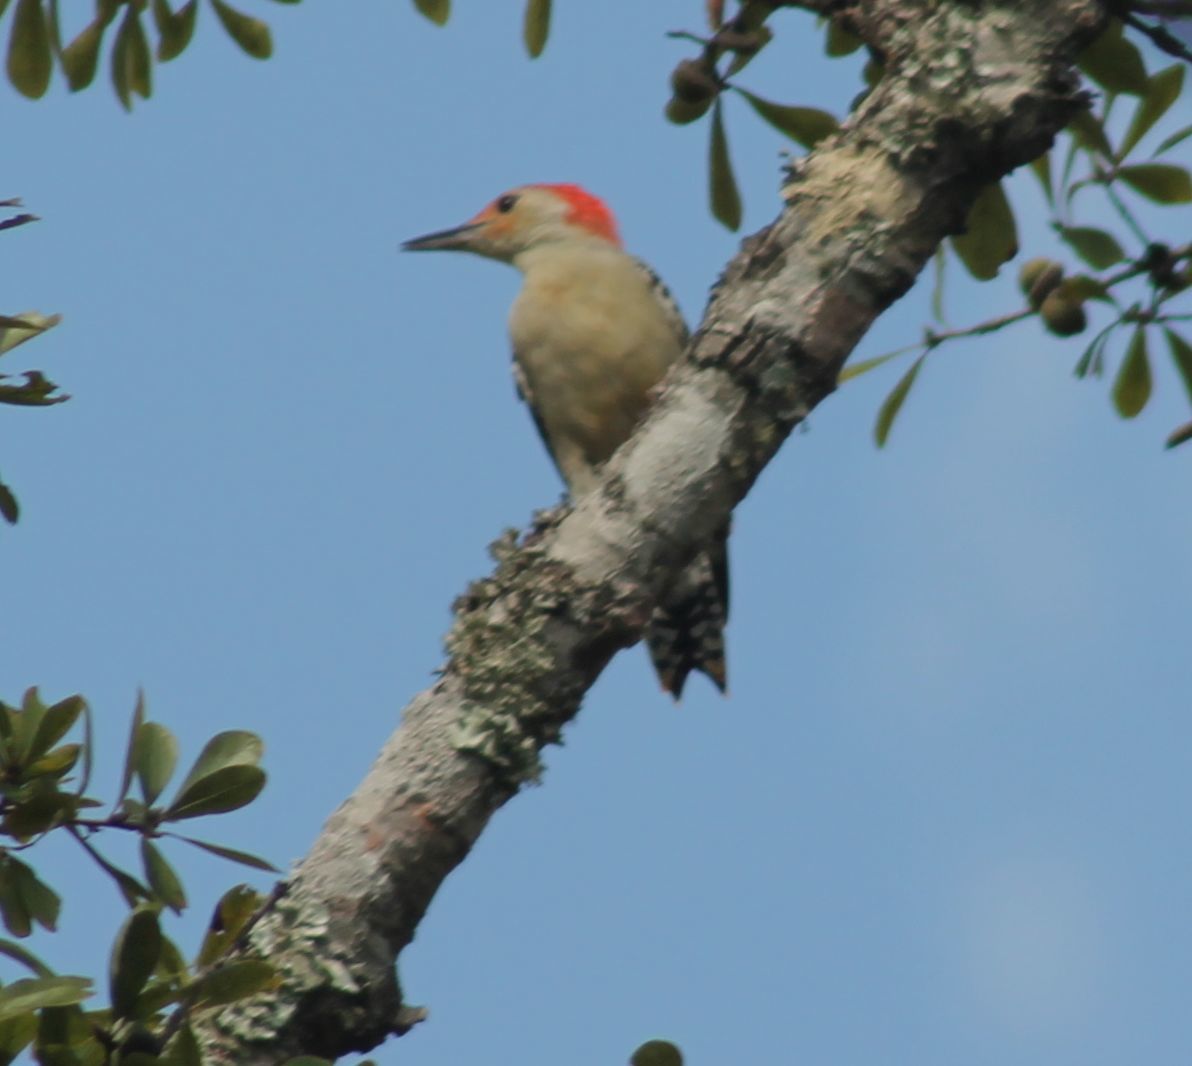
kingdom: Animalia
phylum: Chordata
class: Aves
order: Piciformes
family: Picidae
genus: Melanerpes
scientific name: Melanerpes carolinus
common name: Red-bellied woodpecker
